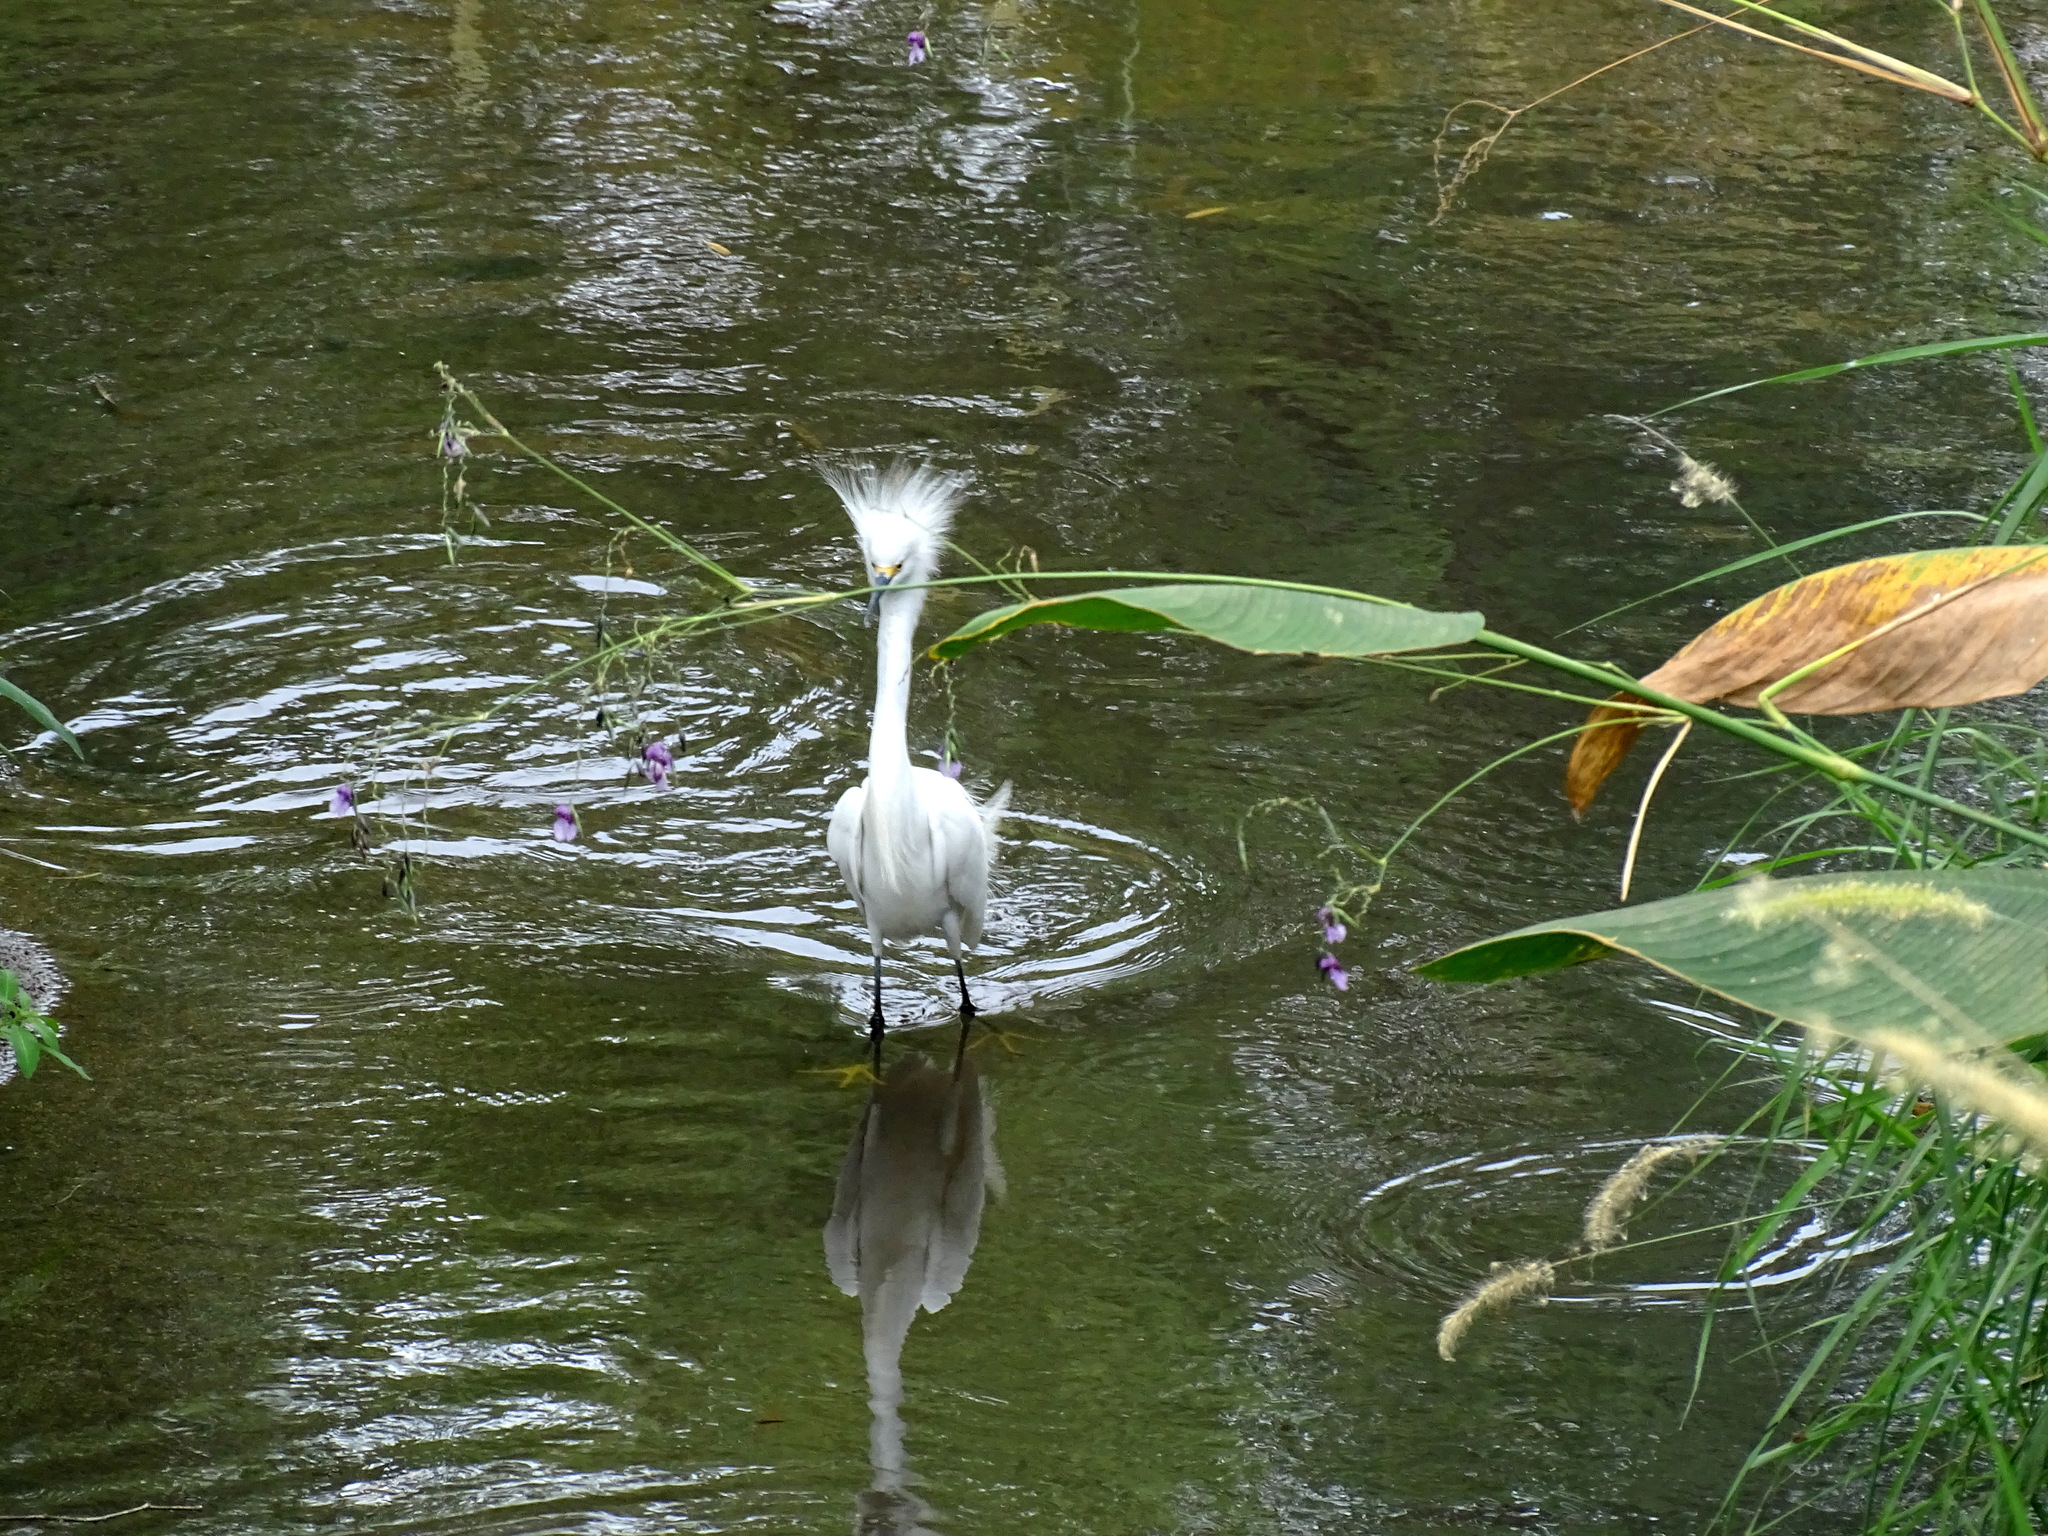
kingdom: Animalia
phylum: Chordata
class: Aves
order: Pelecaniformes
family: Ardeidae
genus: Egretta
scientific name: Egretta thula
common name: Snowy egret
